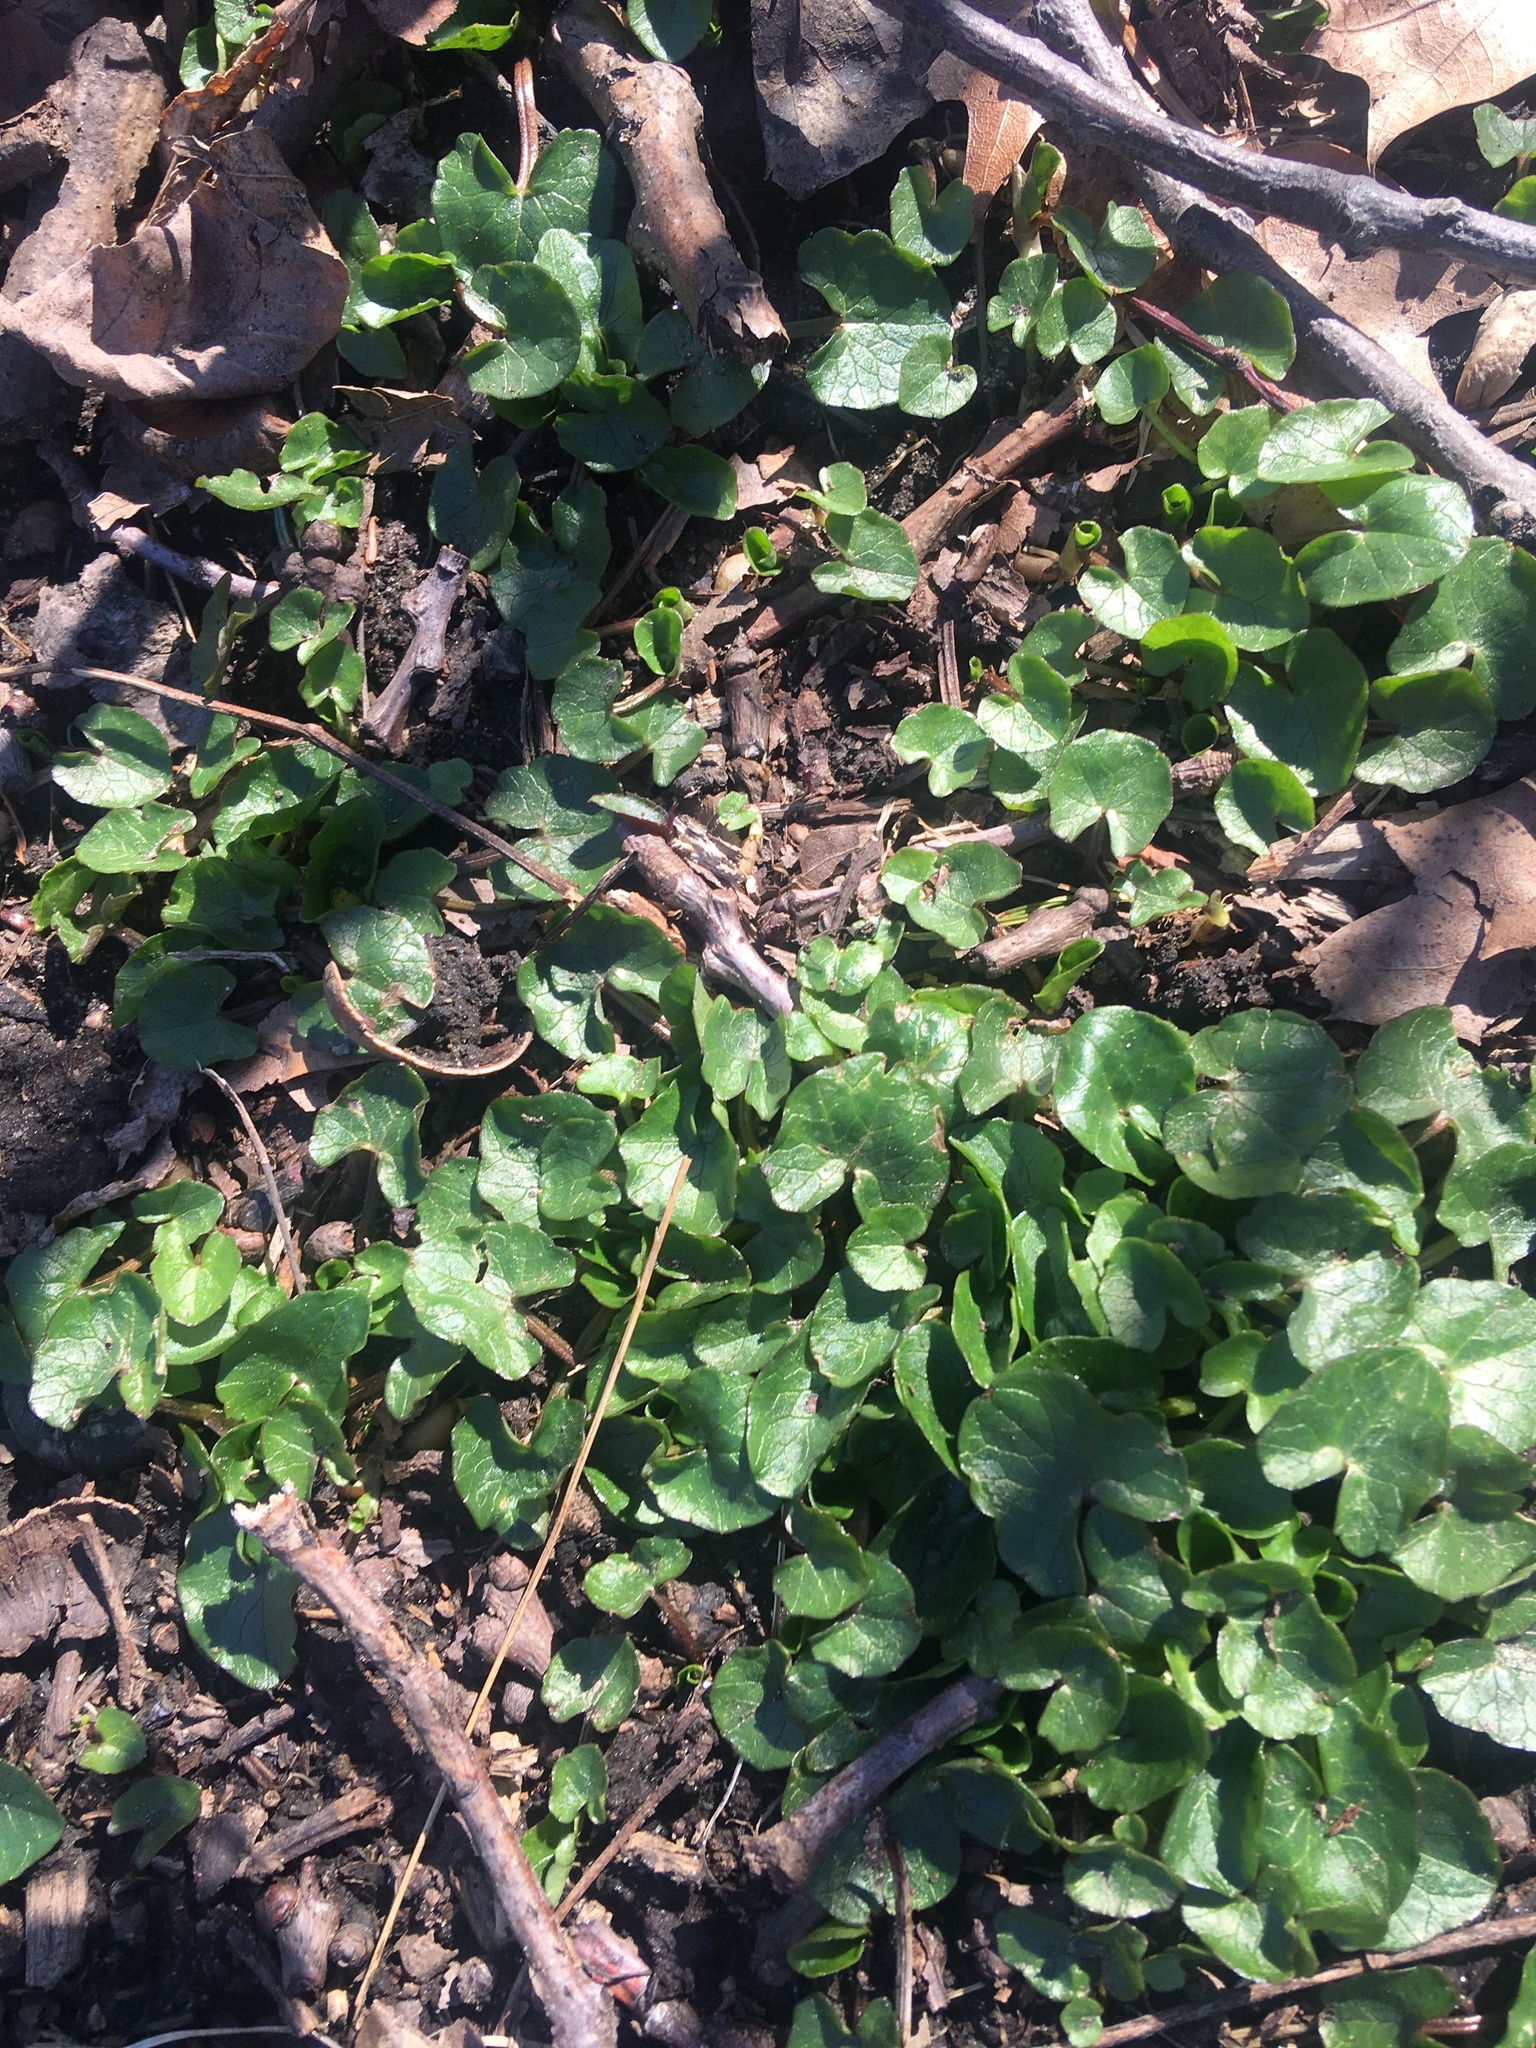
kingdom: Plantae
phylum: Tracheophyta
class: Magnoliopsida
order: Ranunculales
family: Ranunculaceae
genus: Ficaria
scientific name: Ficaria verna
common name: Lesser celandine
